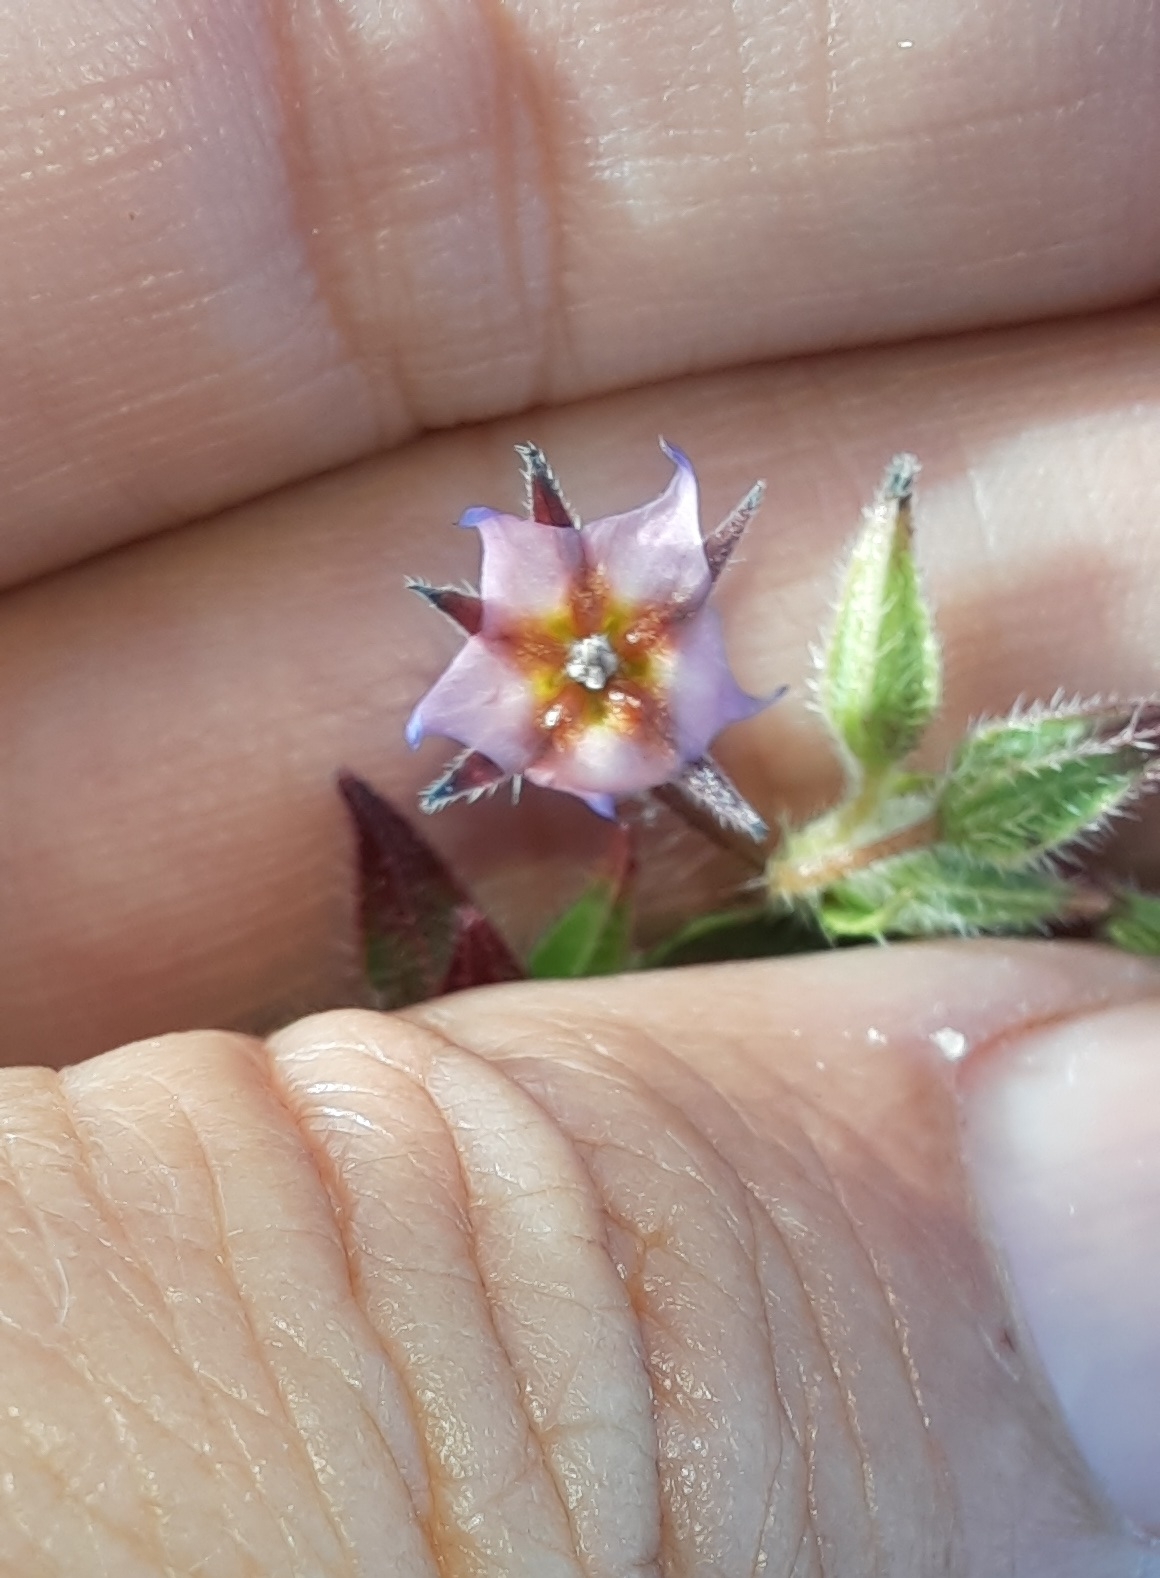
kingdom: Plantae
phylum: Tracheophyta
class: Magnoliopsida
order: Boraginales
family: Boraginaceae
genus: Trichodesma
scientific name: Trichodesma africanum
